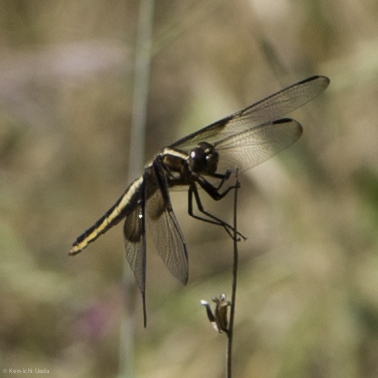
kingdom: Animalia
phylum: Arthropoda
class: Insecta
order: Odonata
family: Libellulidae
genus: Libellula
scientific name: Libellula luctuosa
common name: Widow skimmer
